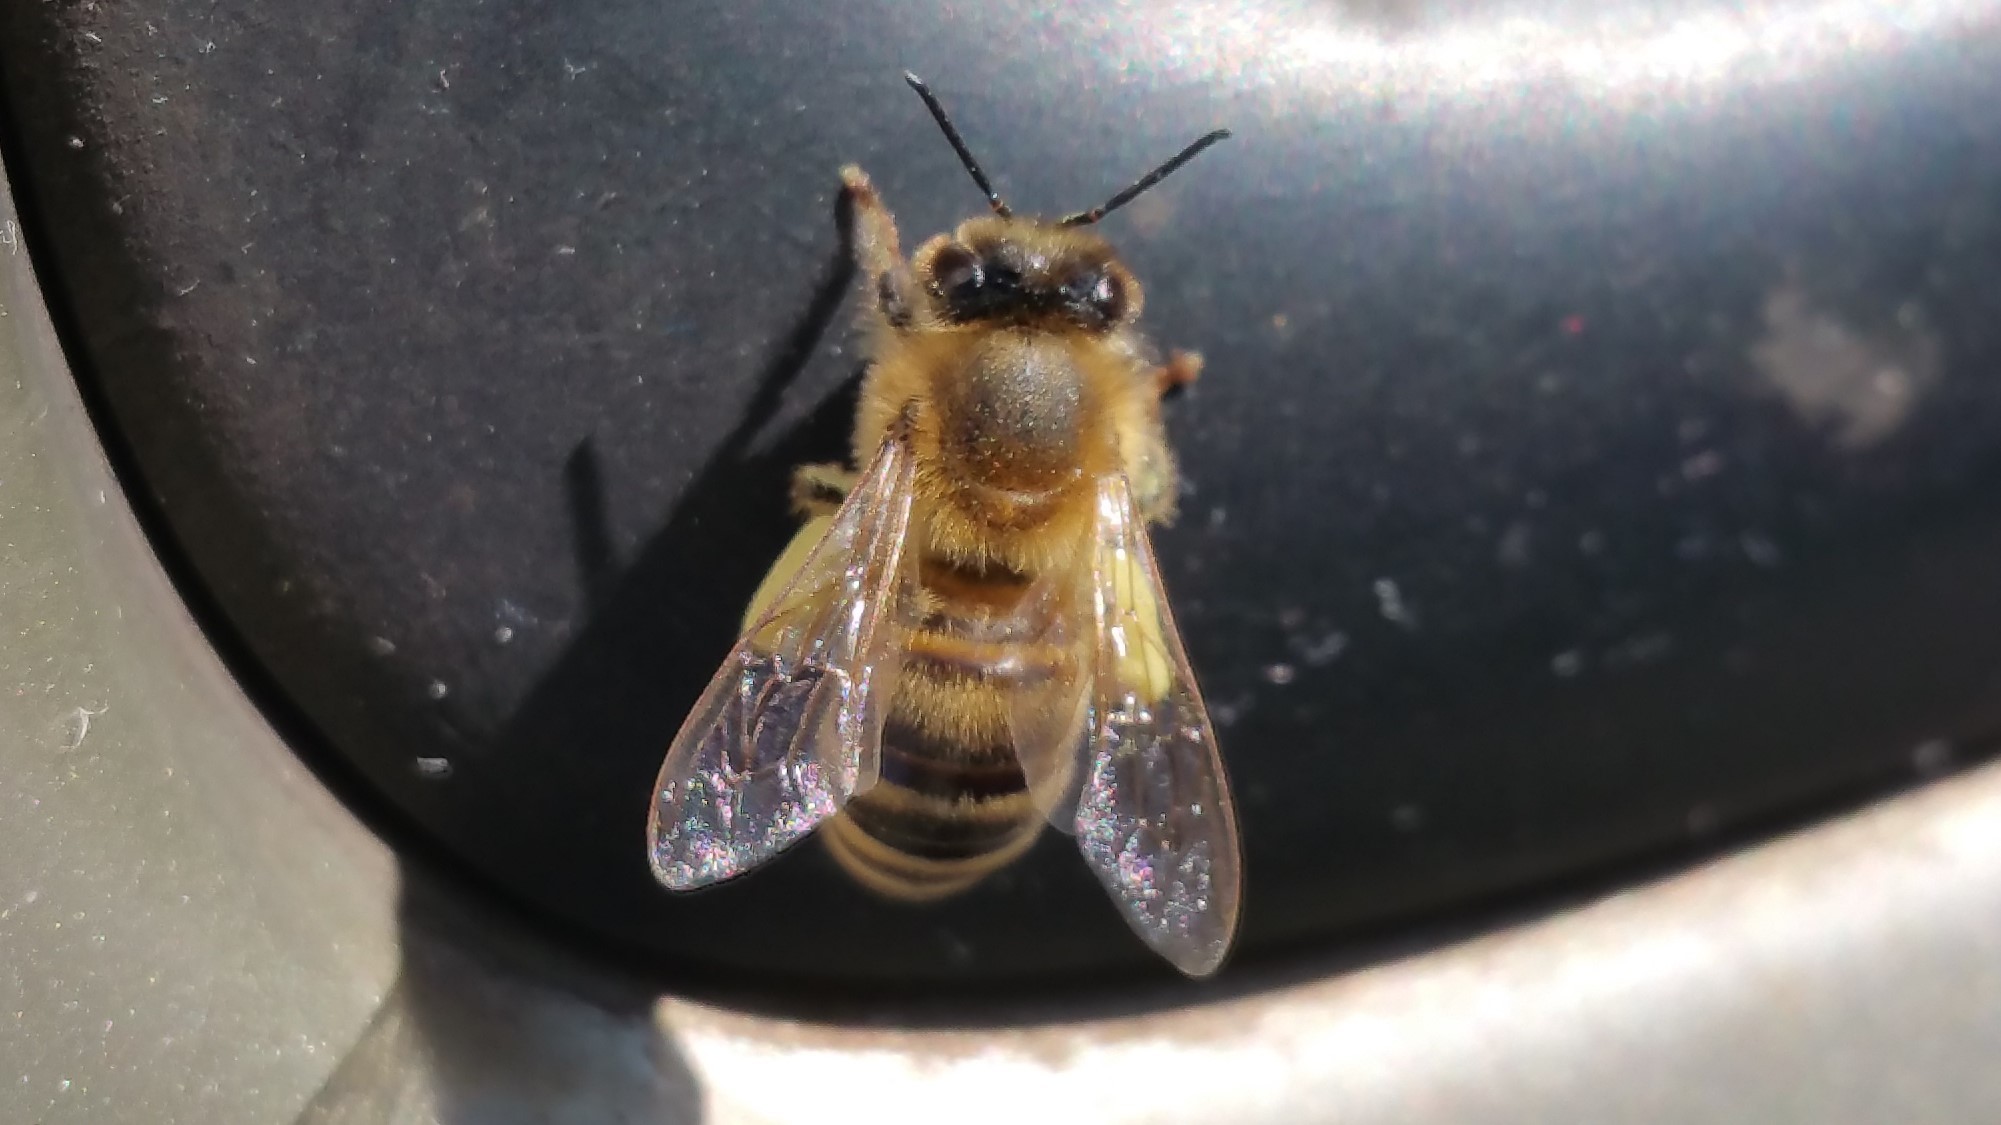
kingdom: Animalia
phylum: Arthropoda
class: Insecta
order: Hymenoptera
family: Apidae
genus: Apis
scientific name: Apis mellifera
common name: Honey bee
